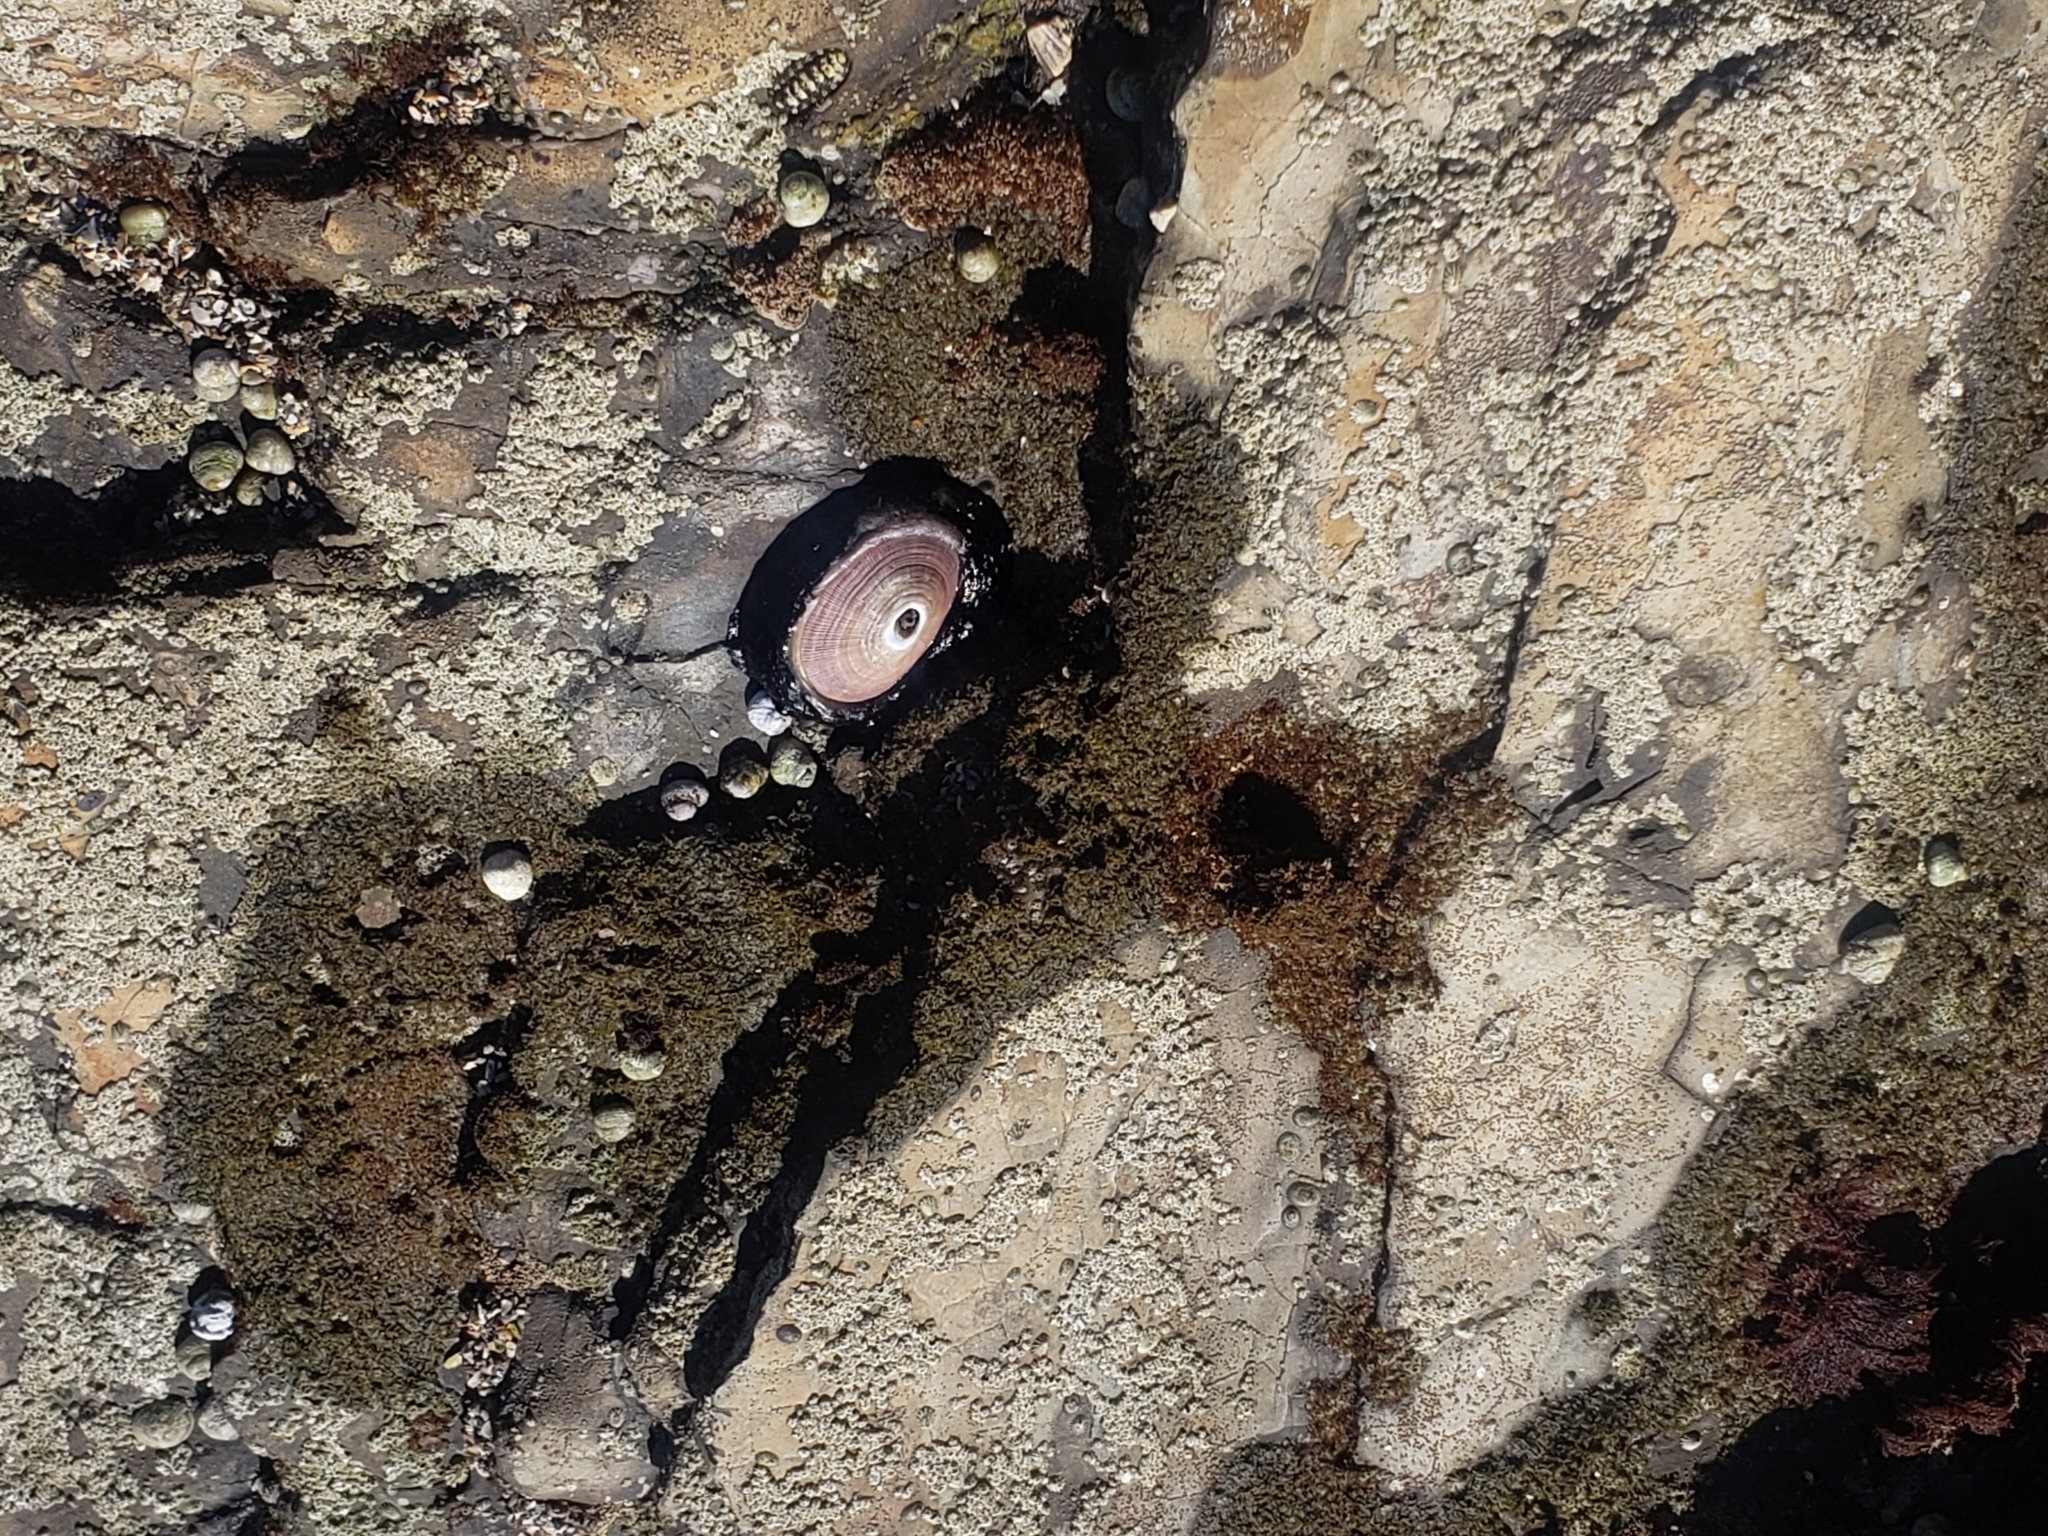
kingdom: Animalia
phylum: Mollusca
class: Gastropoda
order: Lepetellida
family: Fissurellidae
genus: Megathura
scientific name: Megathura crenulata
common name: Giant keyhole limpet
